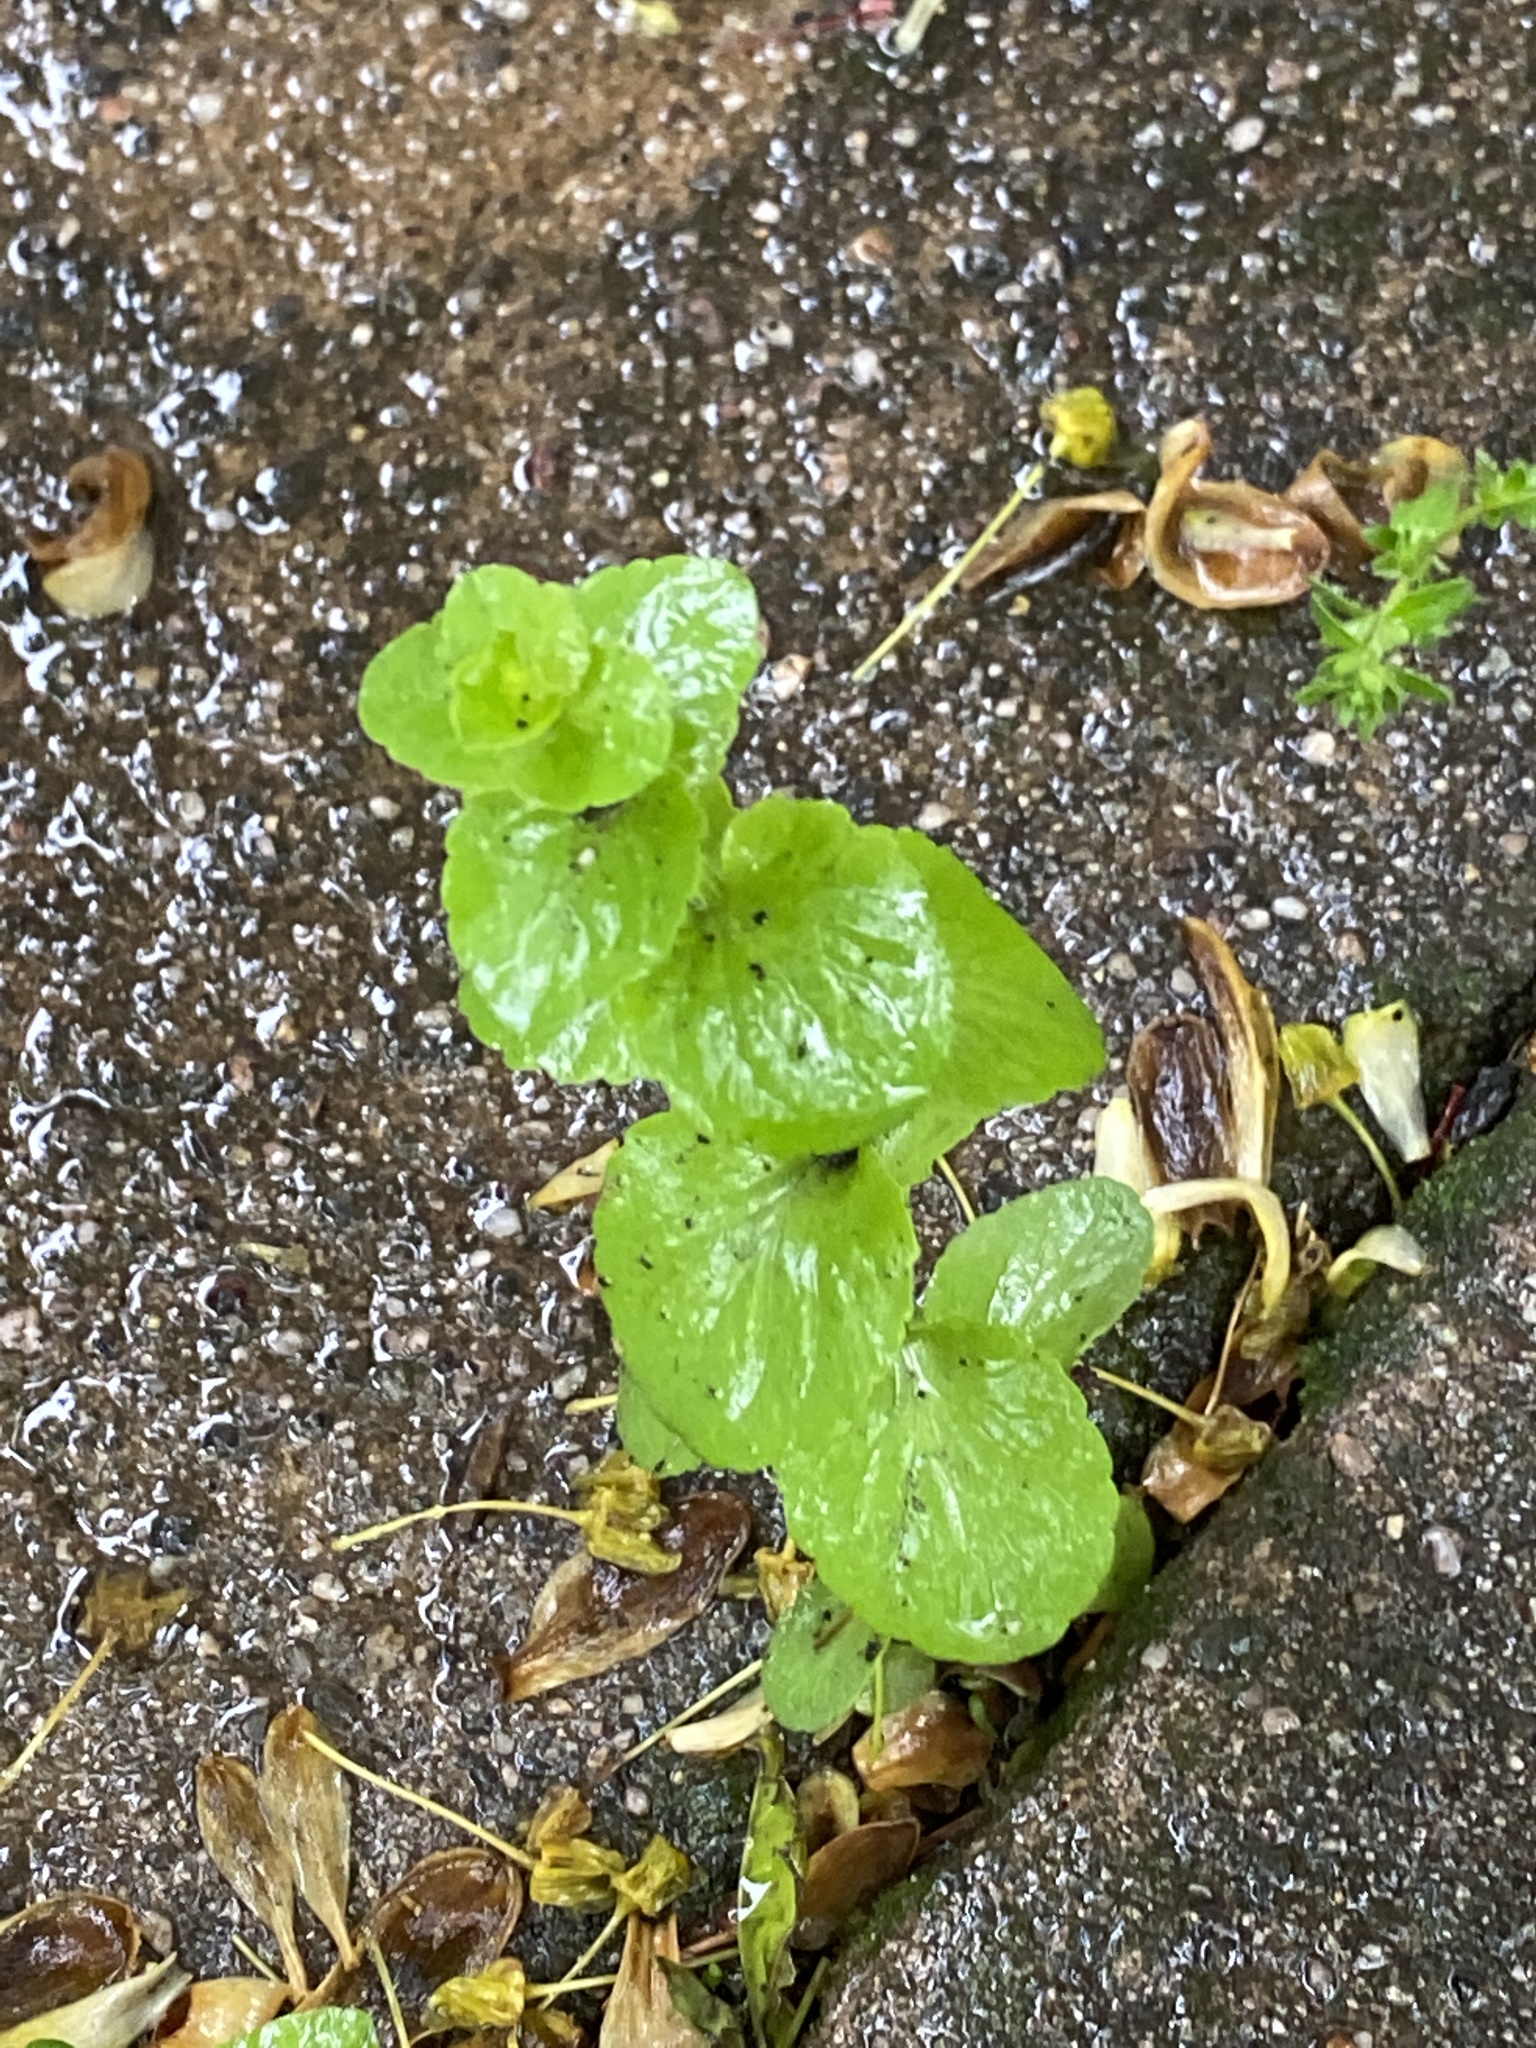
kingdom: Plantae
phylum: Tracheophyta
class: Magnoliopsida
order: Asterales
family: Campanulaceae
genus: Triodanis
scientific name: Triodanis perfoliata
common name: Clasping venus' looking-glass
